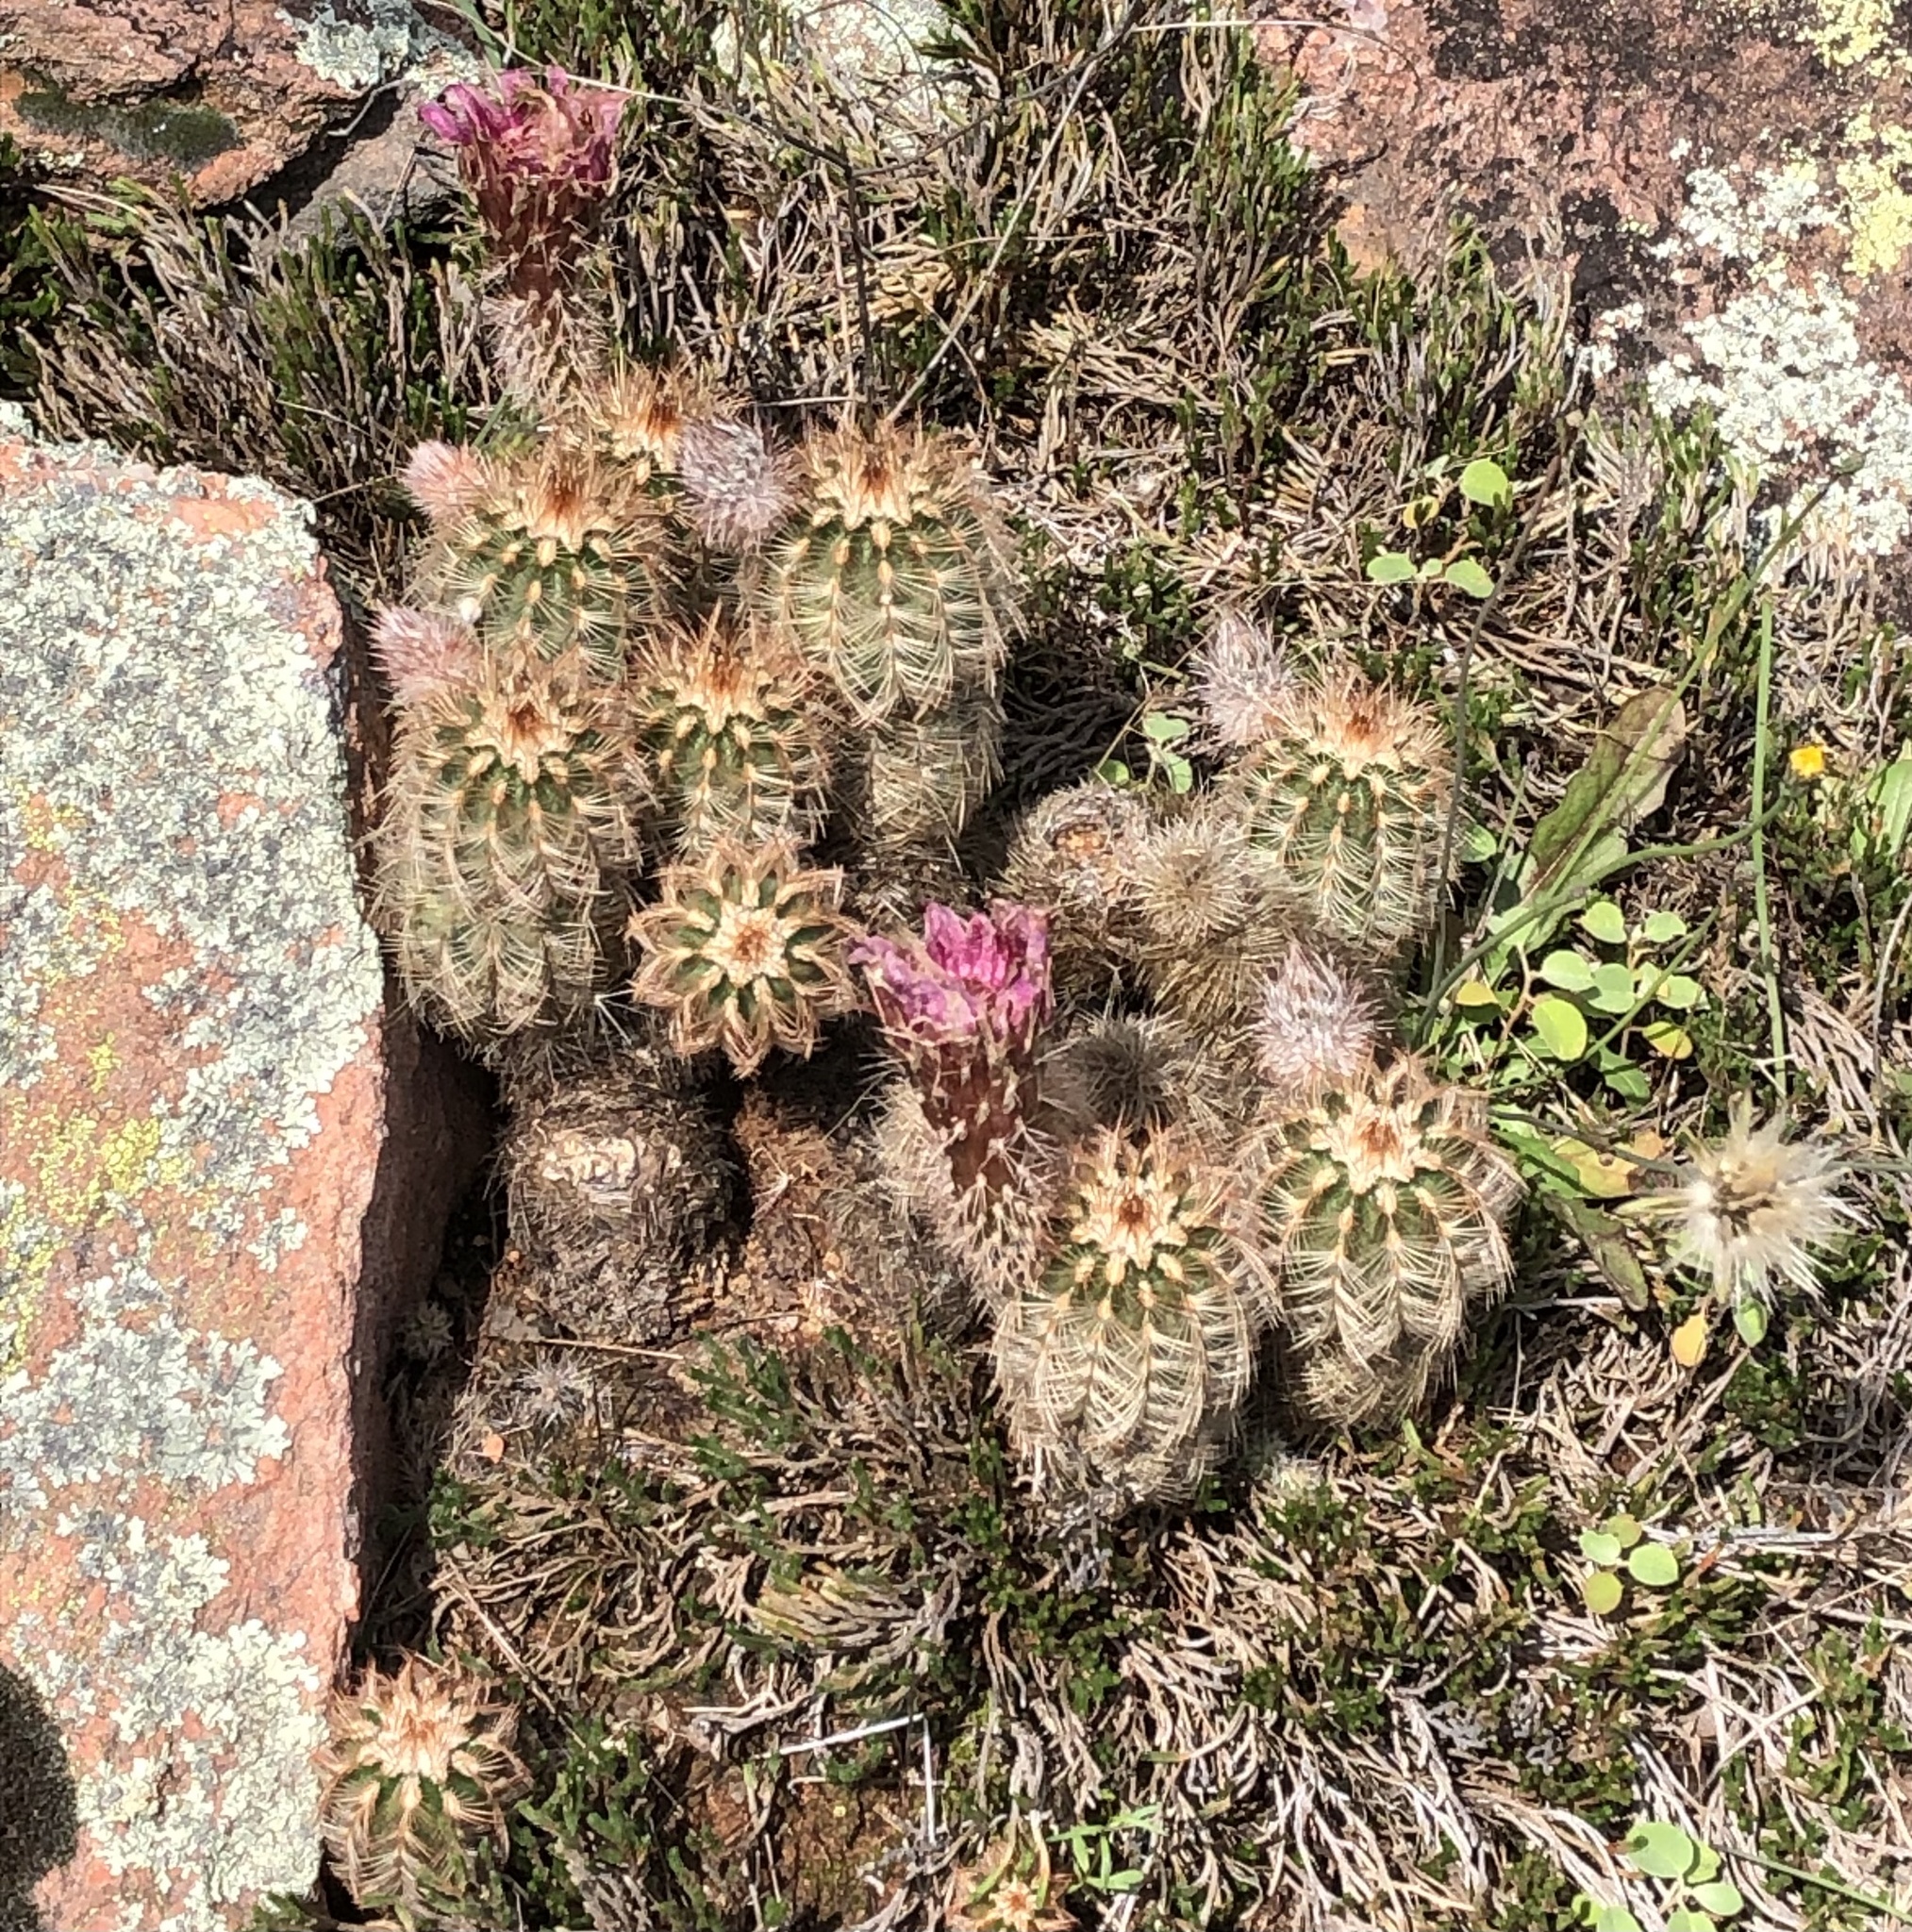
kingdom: Plantae
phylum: Tracheophyta
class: Magnoliopsida
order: Caryophyllales
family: Cactaceae
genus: Echinocereus
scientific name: Echinocereus reichenbachii
